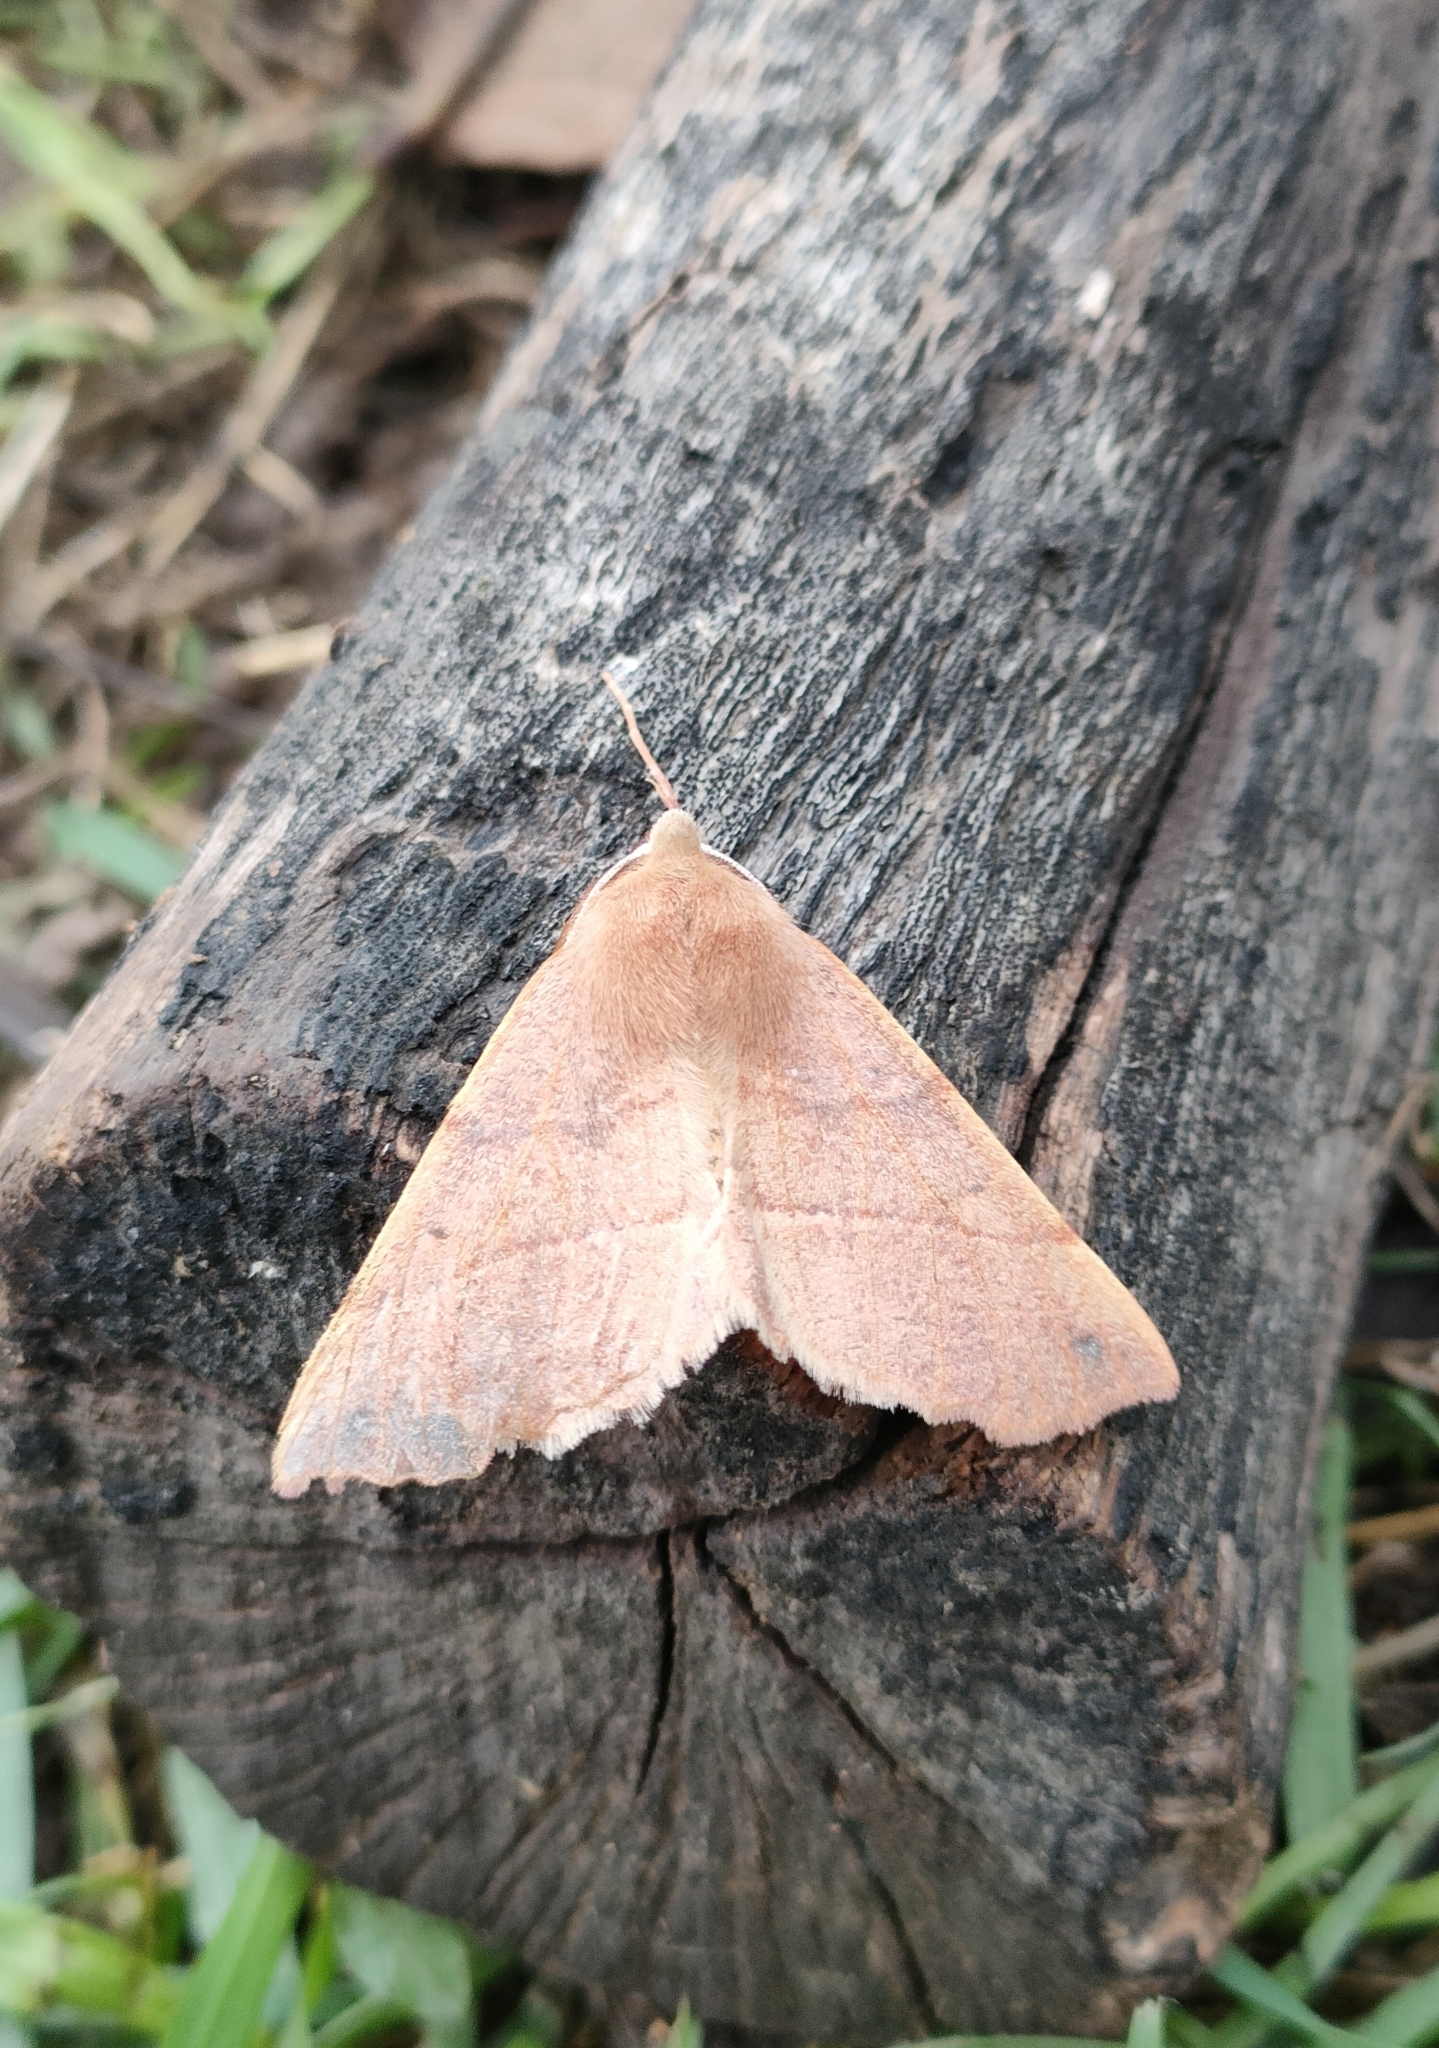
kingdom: Animalia
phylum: Arthropoda
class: Insecta
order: Lepidoptera
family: Geometridae
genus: Colotois
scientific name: Colotois pennaria
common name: Feathered thorn
